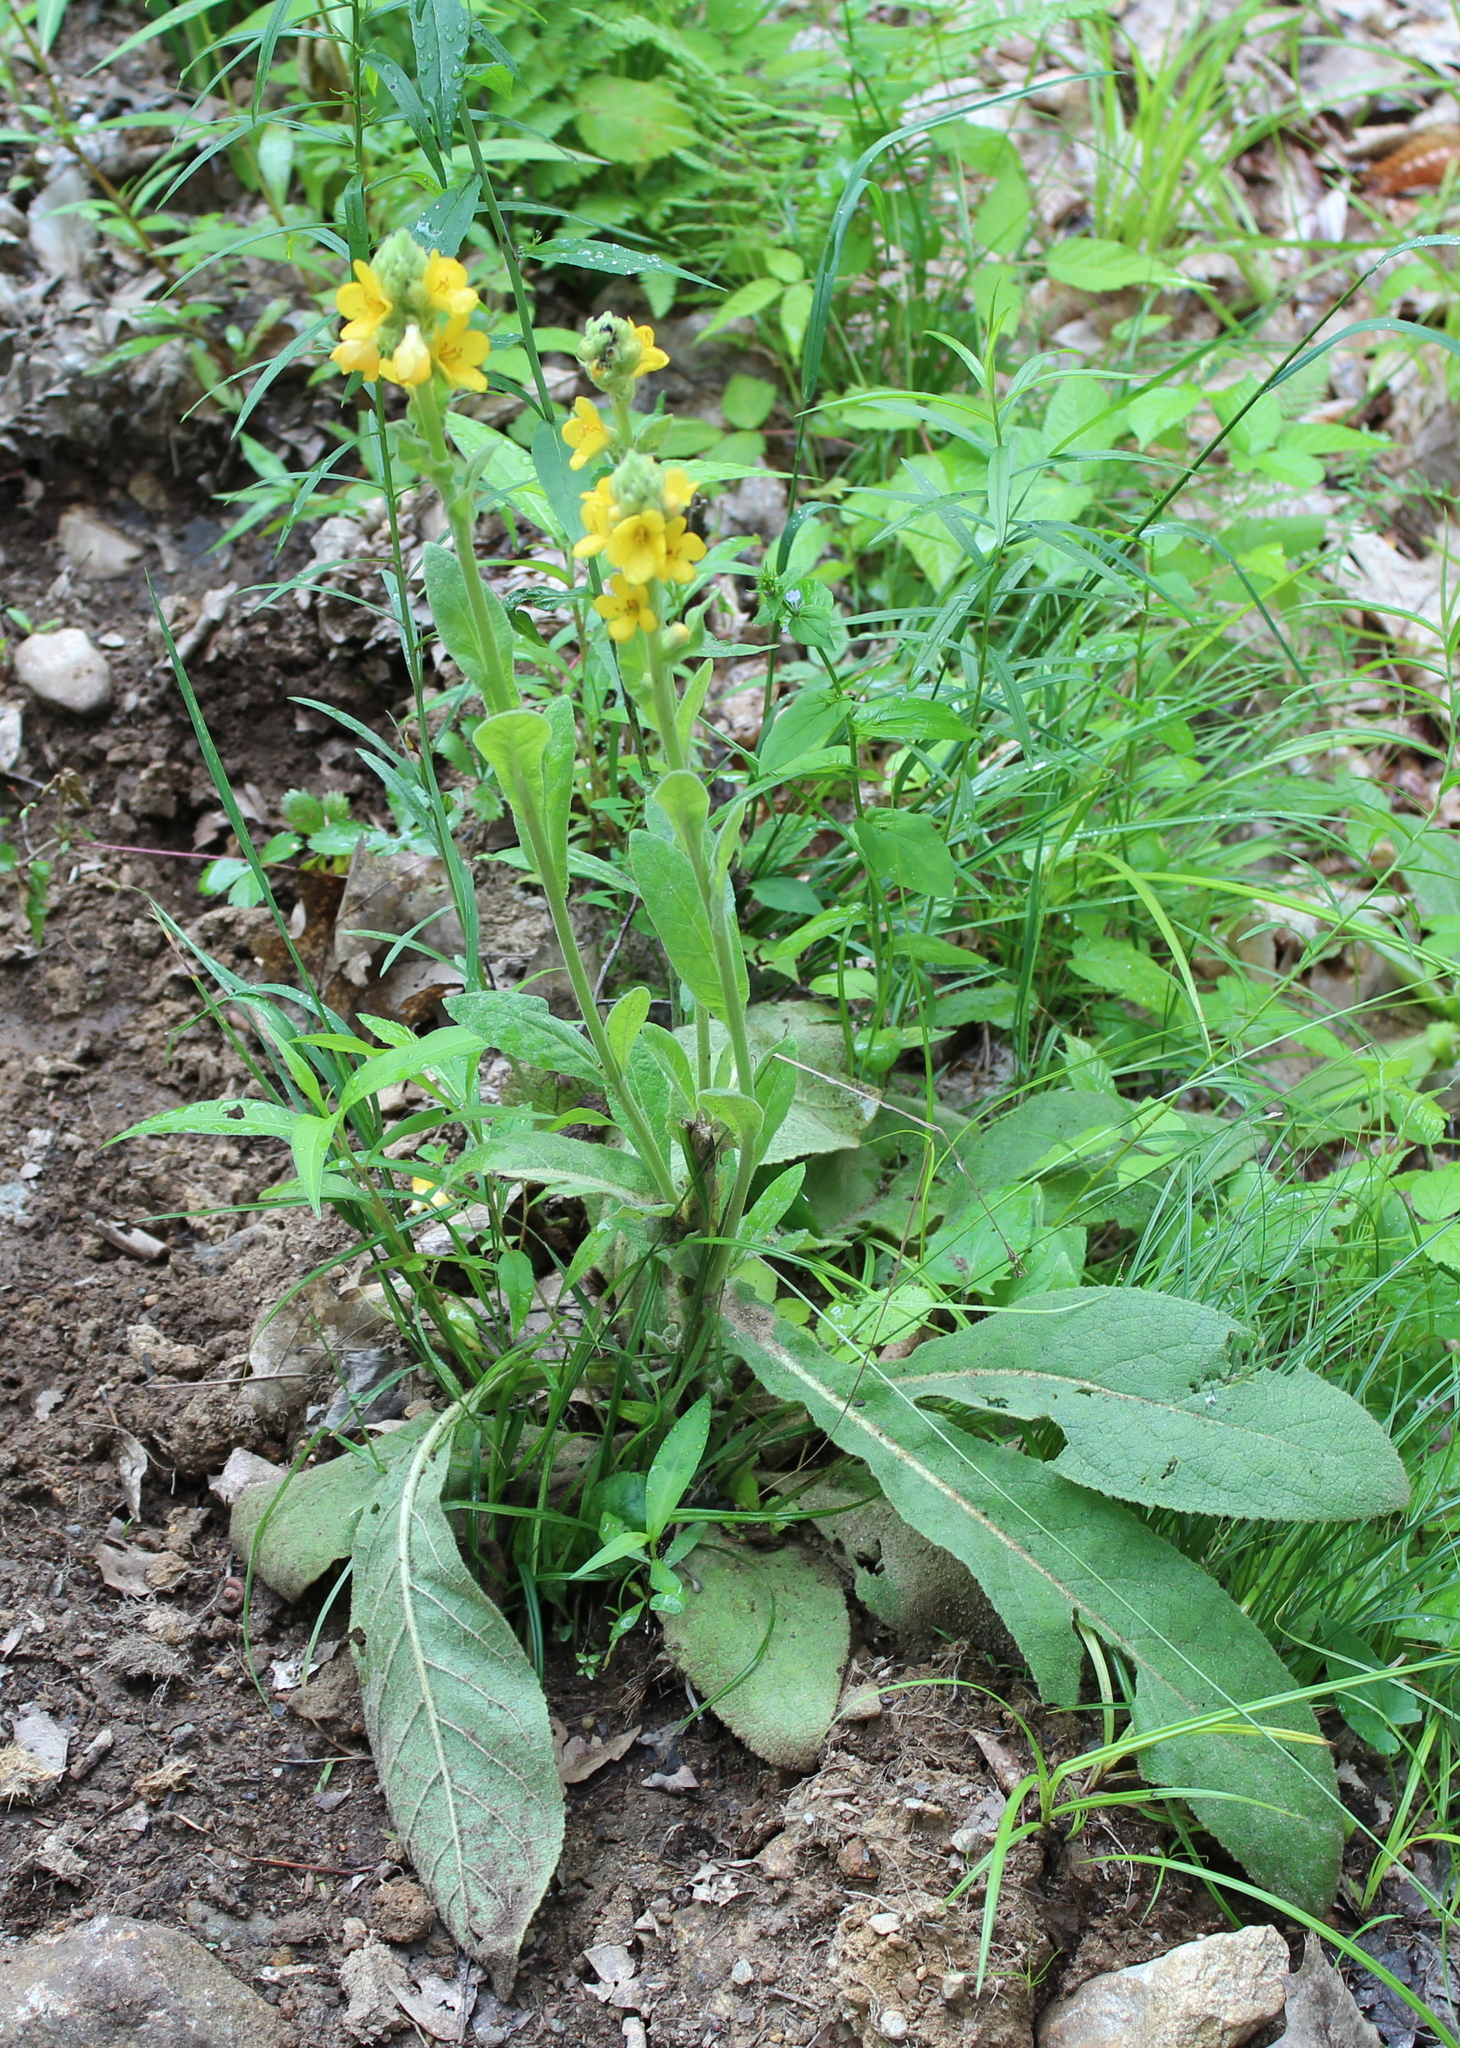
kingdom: Plantae
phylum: Tracheophyta
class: Magnoliopsida
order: Lamiales
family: Scrophulariaceae
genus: Verbascum
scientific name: Verbascum thapsus
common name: Common mullein
